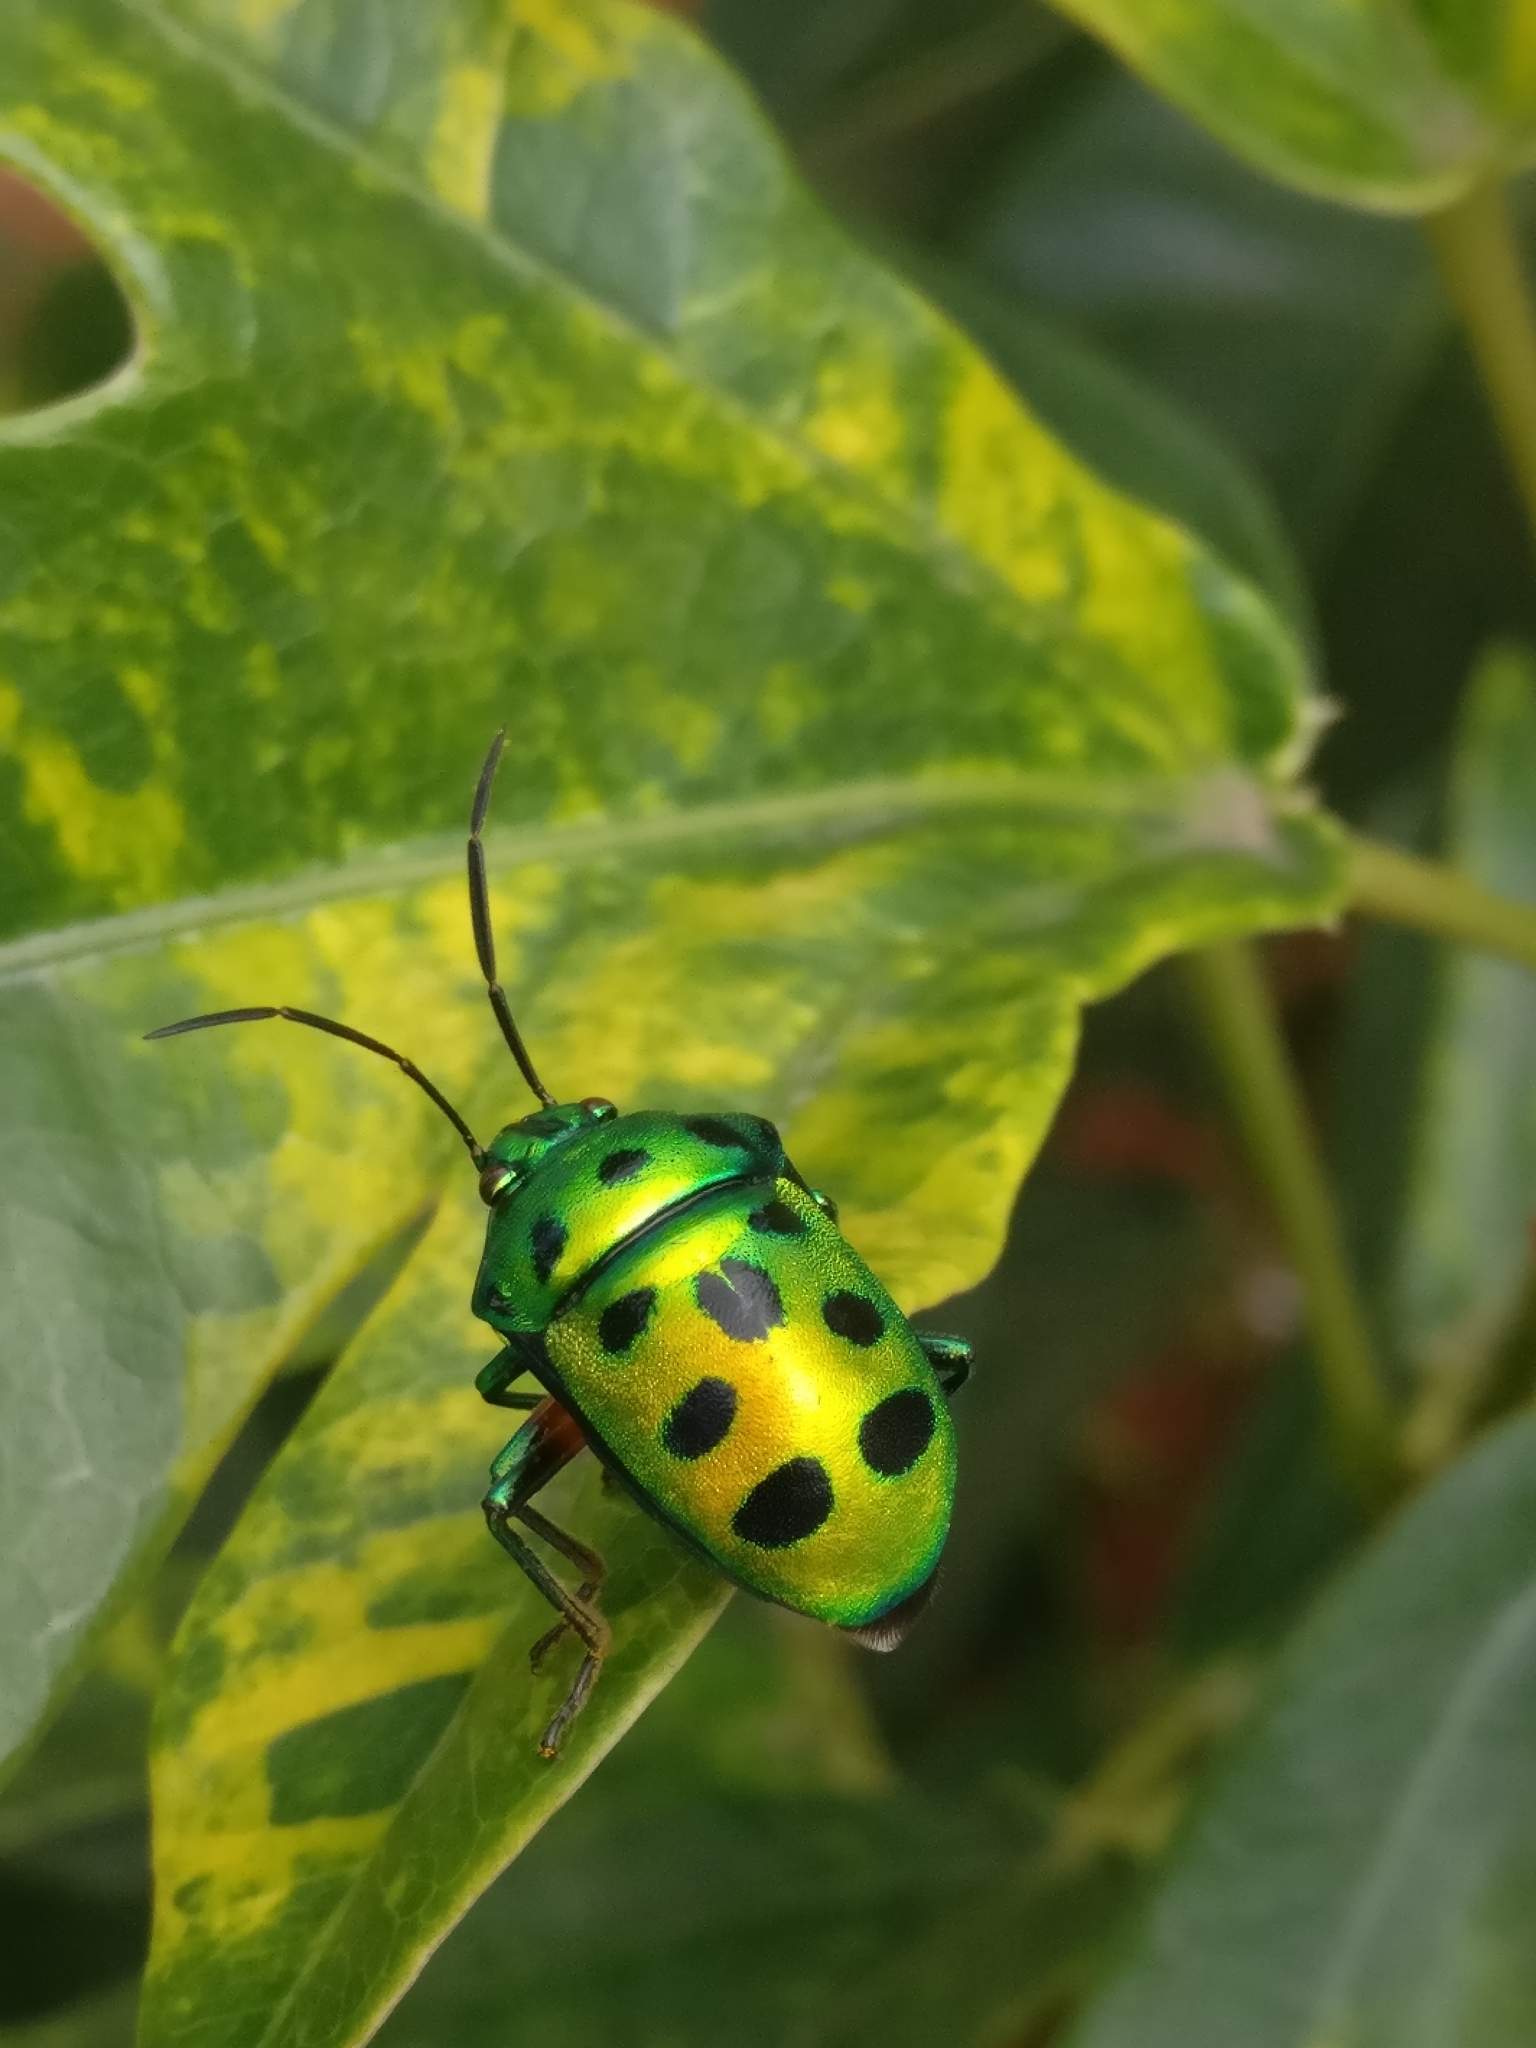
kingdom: Animalia
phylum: Arthropoda
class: Insecta
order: Hemiptera
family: Scutelleridae
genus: Chrysocoris
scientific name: Chrysocoris purpureus
